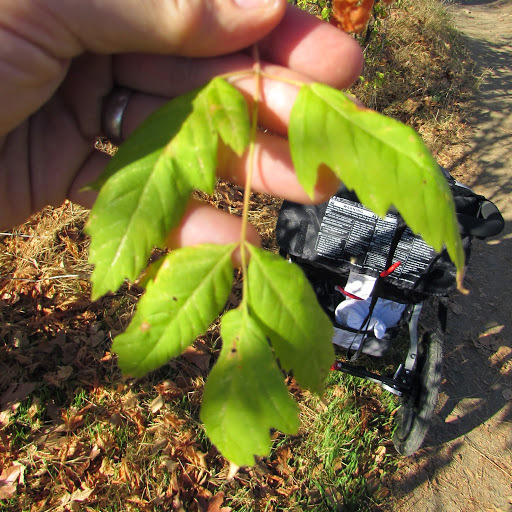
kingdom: Plantae
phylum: Tracheophyta
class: Magnoliopsida
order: Sapindales
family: Sapindaceae
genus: Acer
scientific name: Acer negundo
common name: Ashleaf maple
